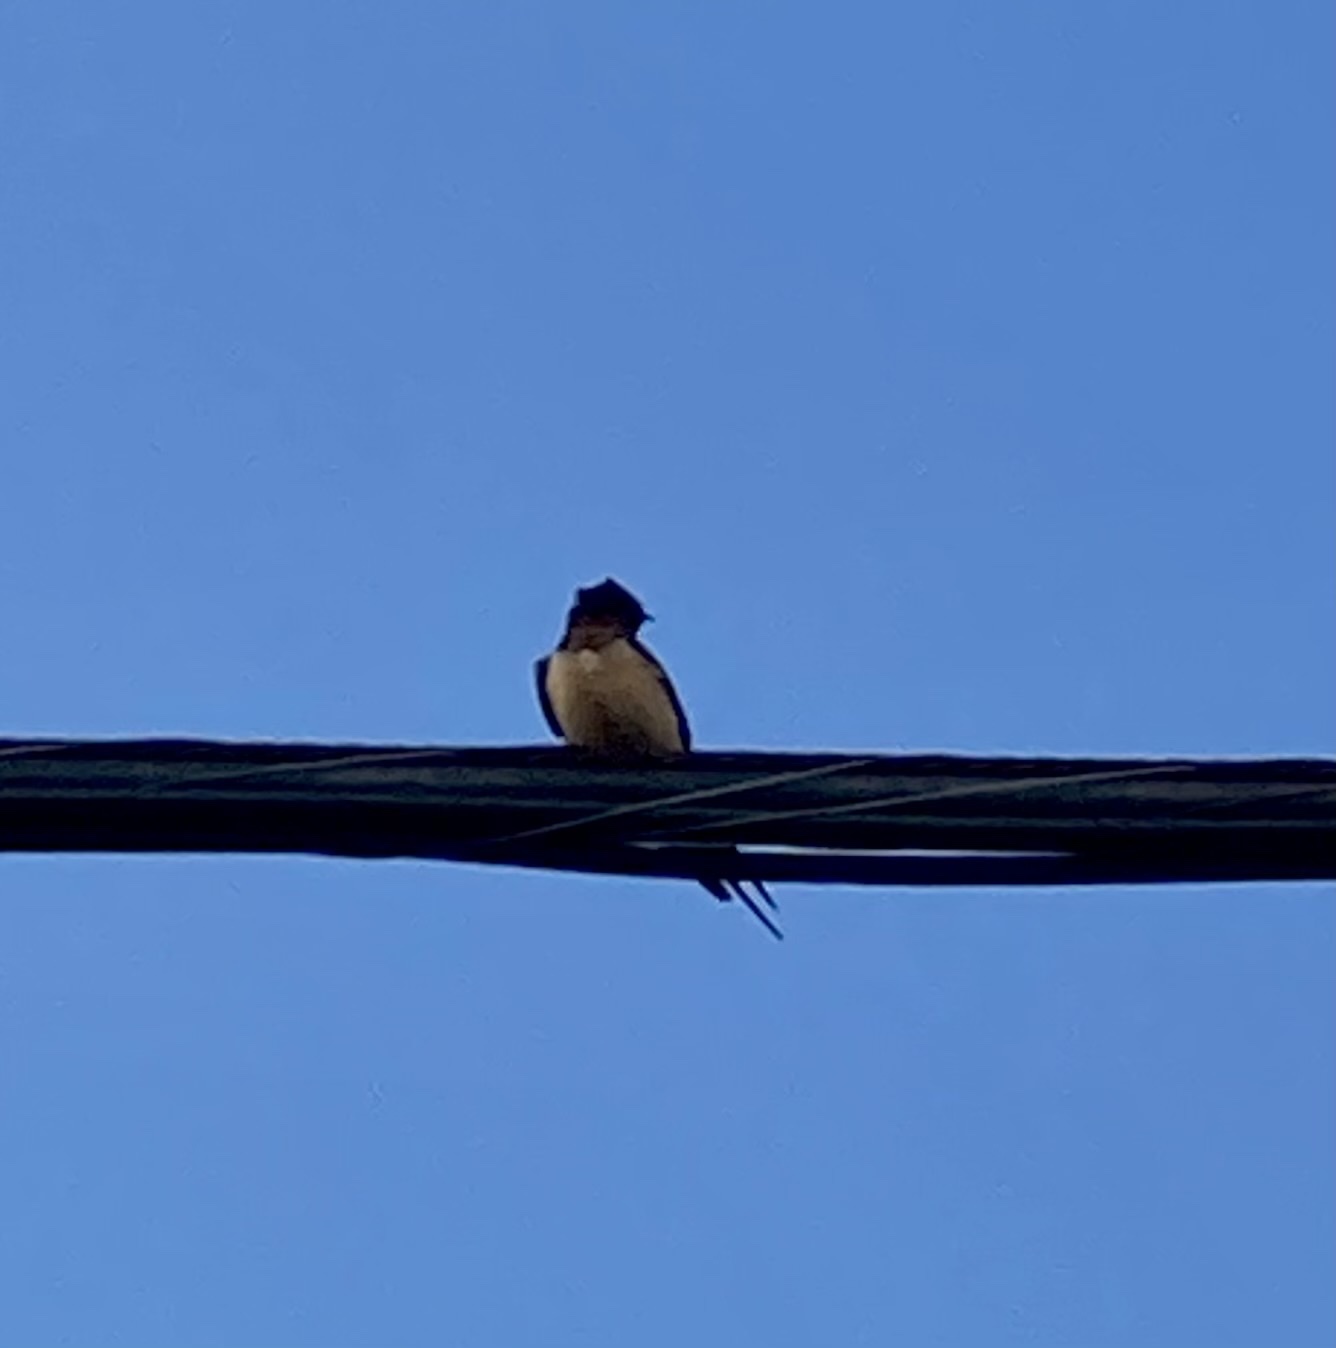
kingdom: Animalia
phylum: Chordata
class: Aves
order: Passeriformes
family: Hirundinidae
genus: Hirundo
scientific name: Hirundo rustica
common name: Barn swallow
